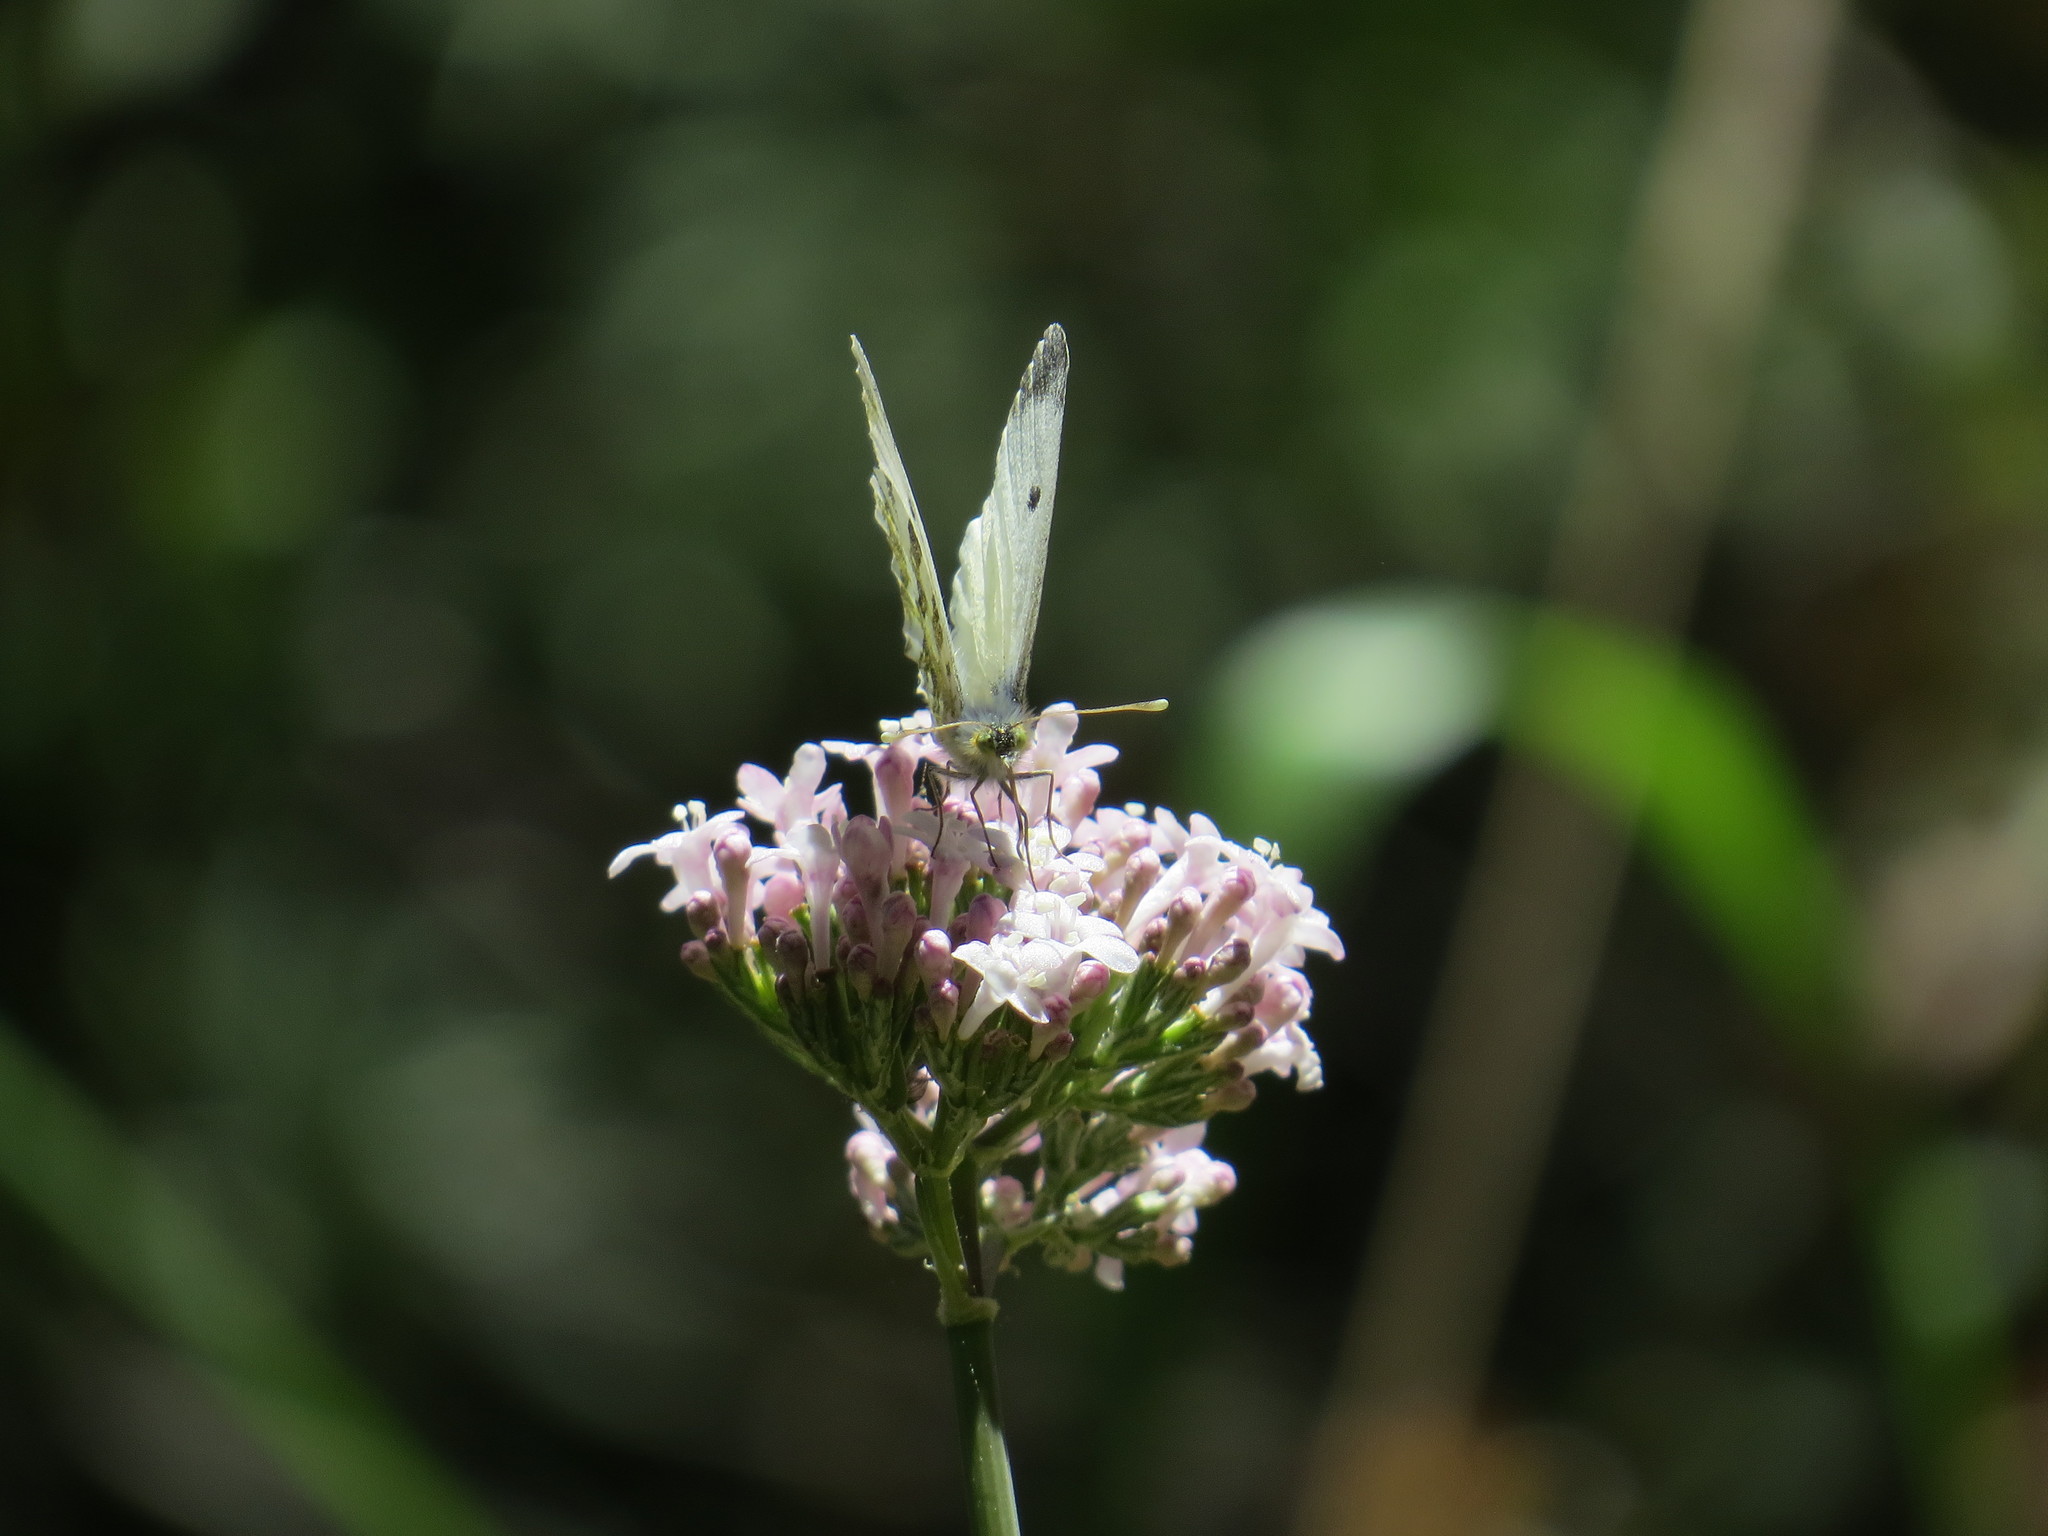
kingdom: Animalia
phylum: Arthropoda
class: Insecta
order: Lepidoptera
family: Pieridae
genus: Anthocharis
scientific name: Anthocharis cardamines
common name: Orange-tip
